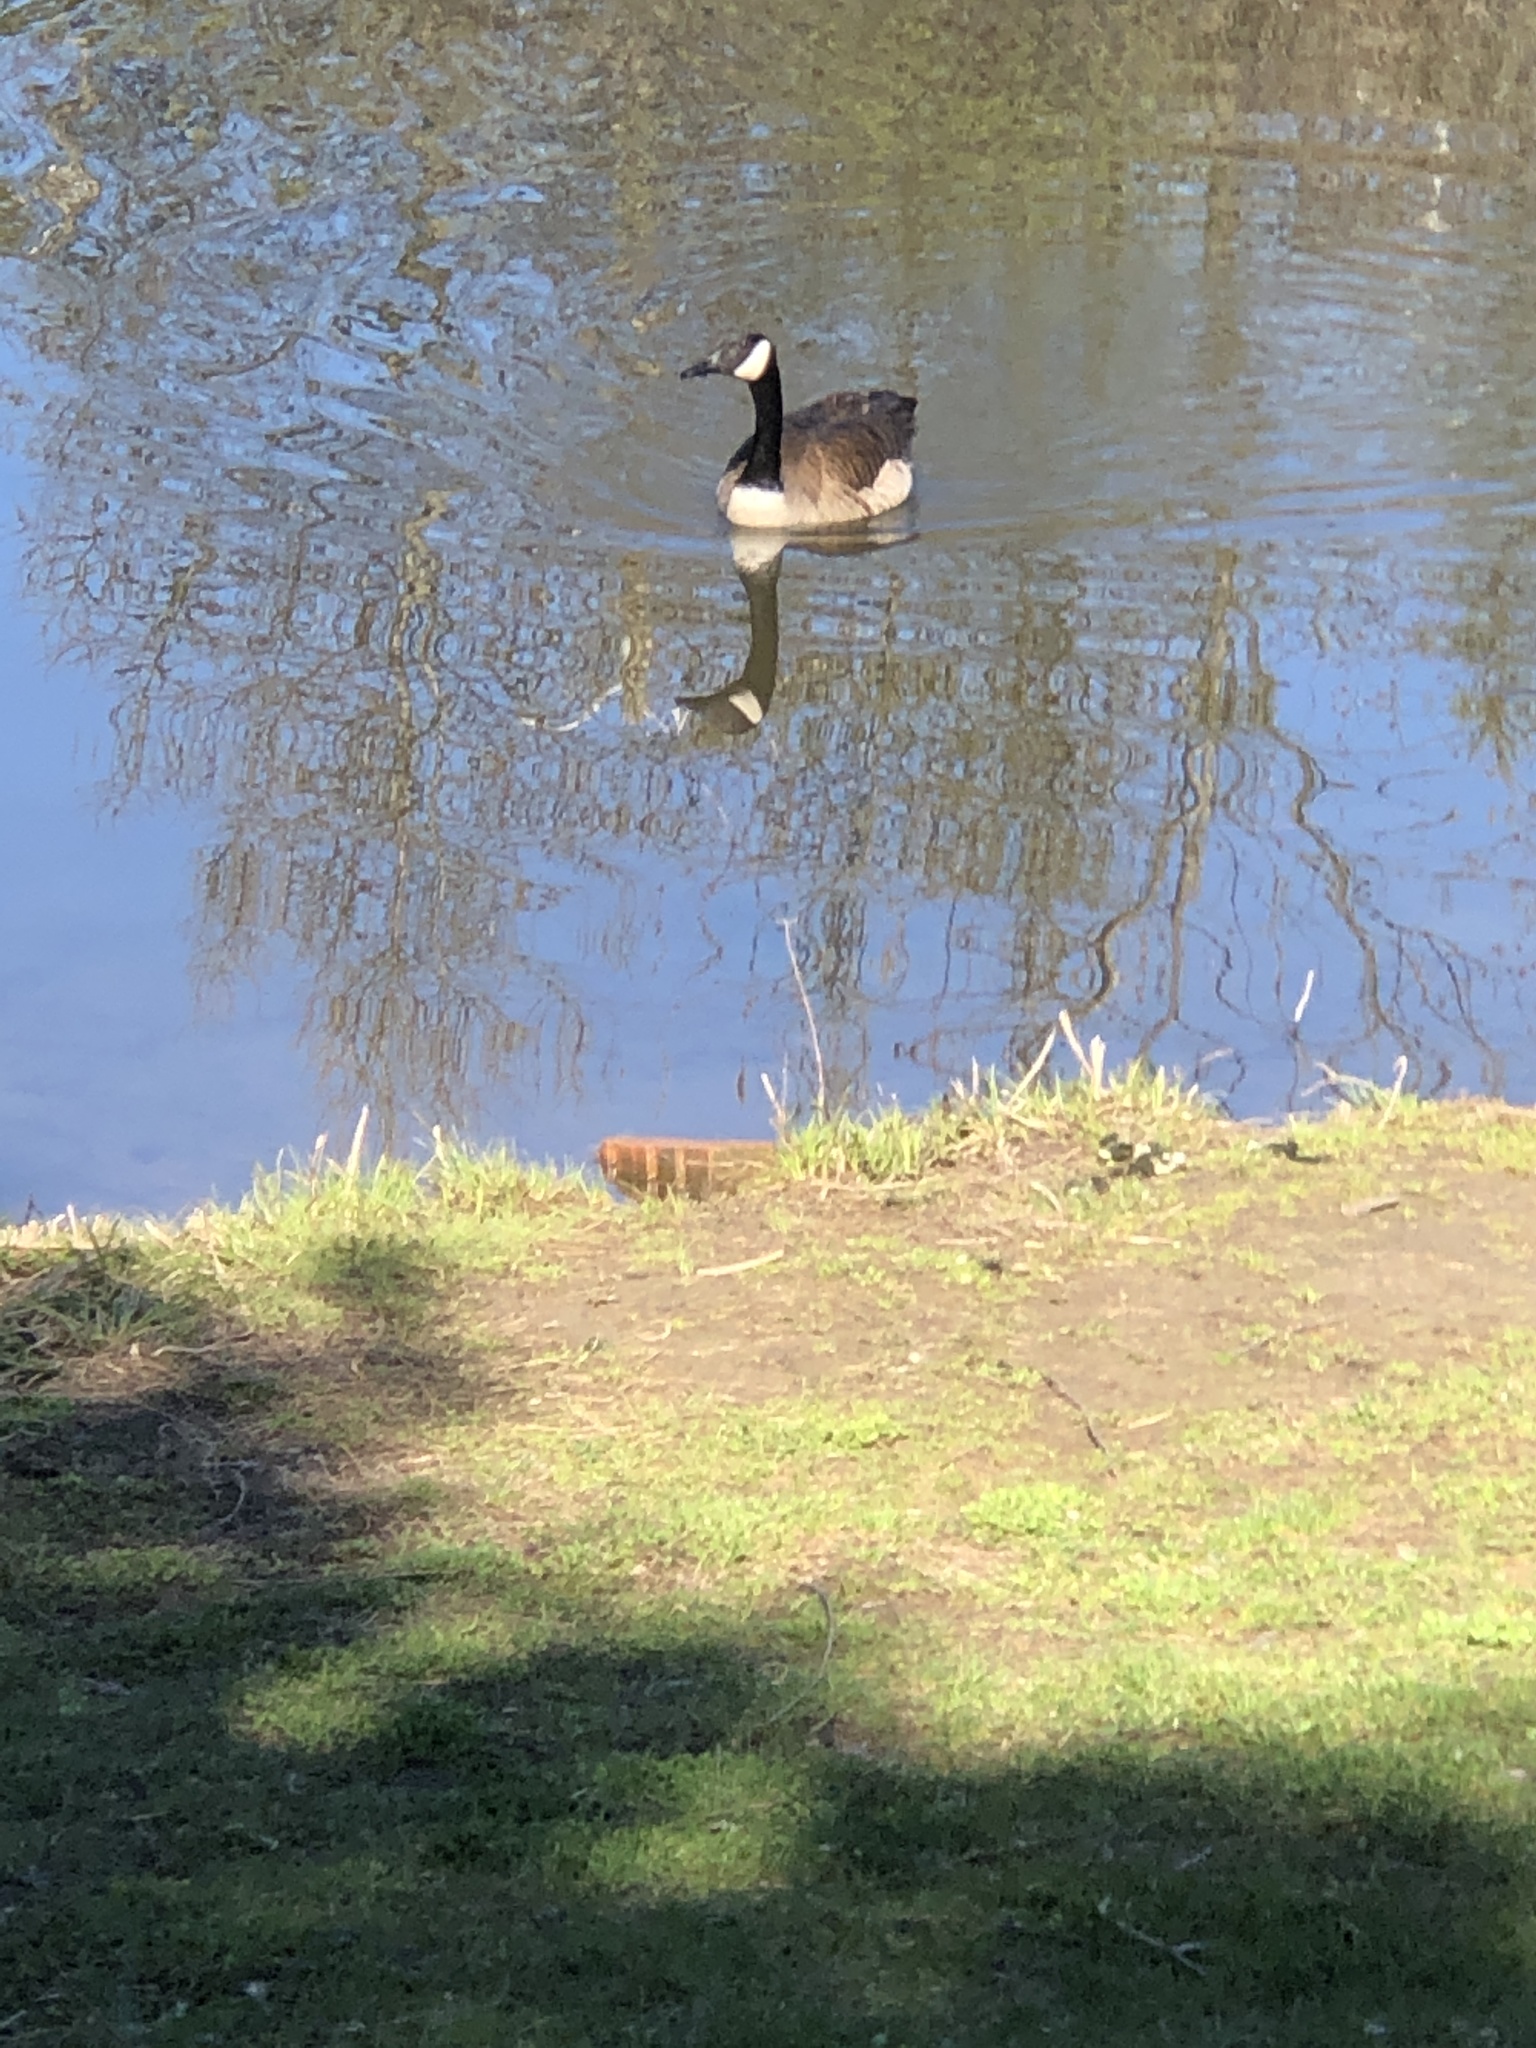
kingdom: Animalia
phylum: Chordata
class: Aves
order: Anseriformes
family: Anatidae
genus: Branta
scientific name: Branta canadensis
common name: Canada goose
